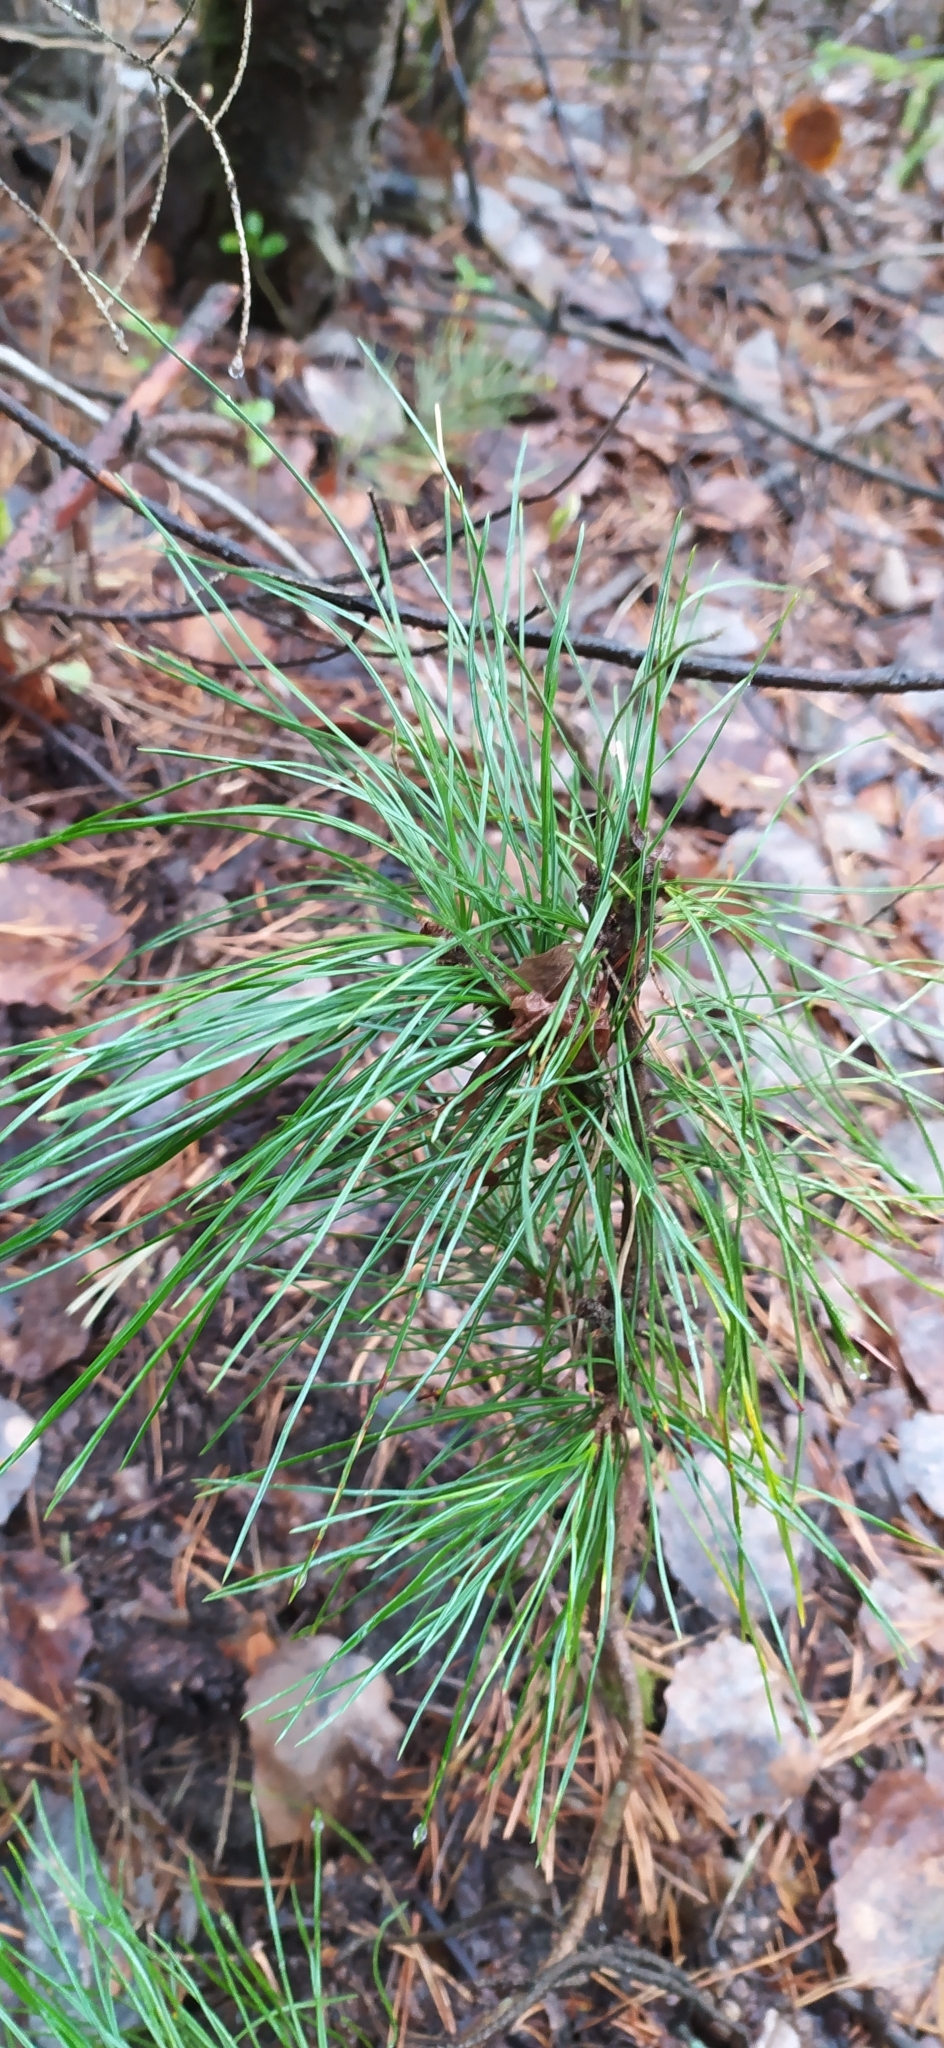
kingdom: Plantae
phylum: Tracheophyta
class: Pinopsida
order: Pinales
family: Pinaceae
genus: Pinus
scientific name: Pinus sibirica
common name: Siberian pine
